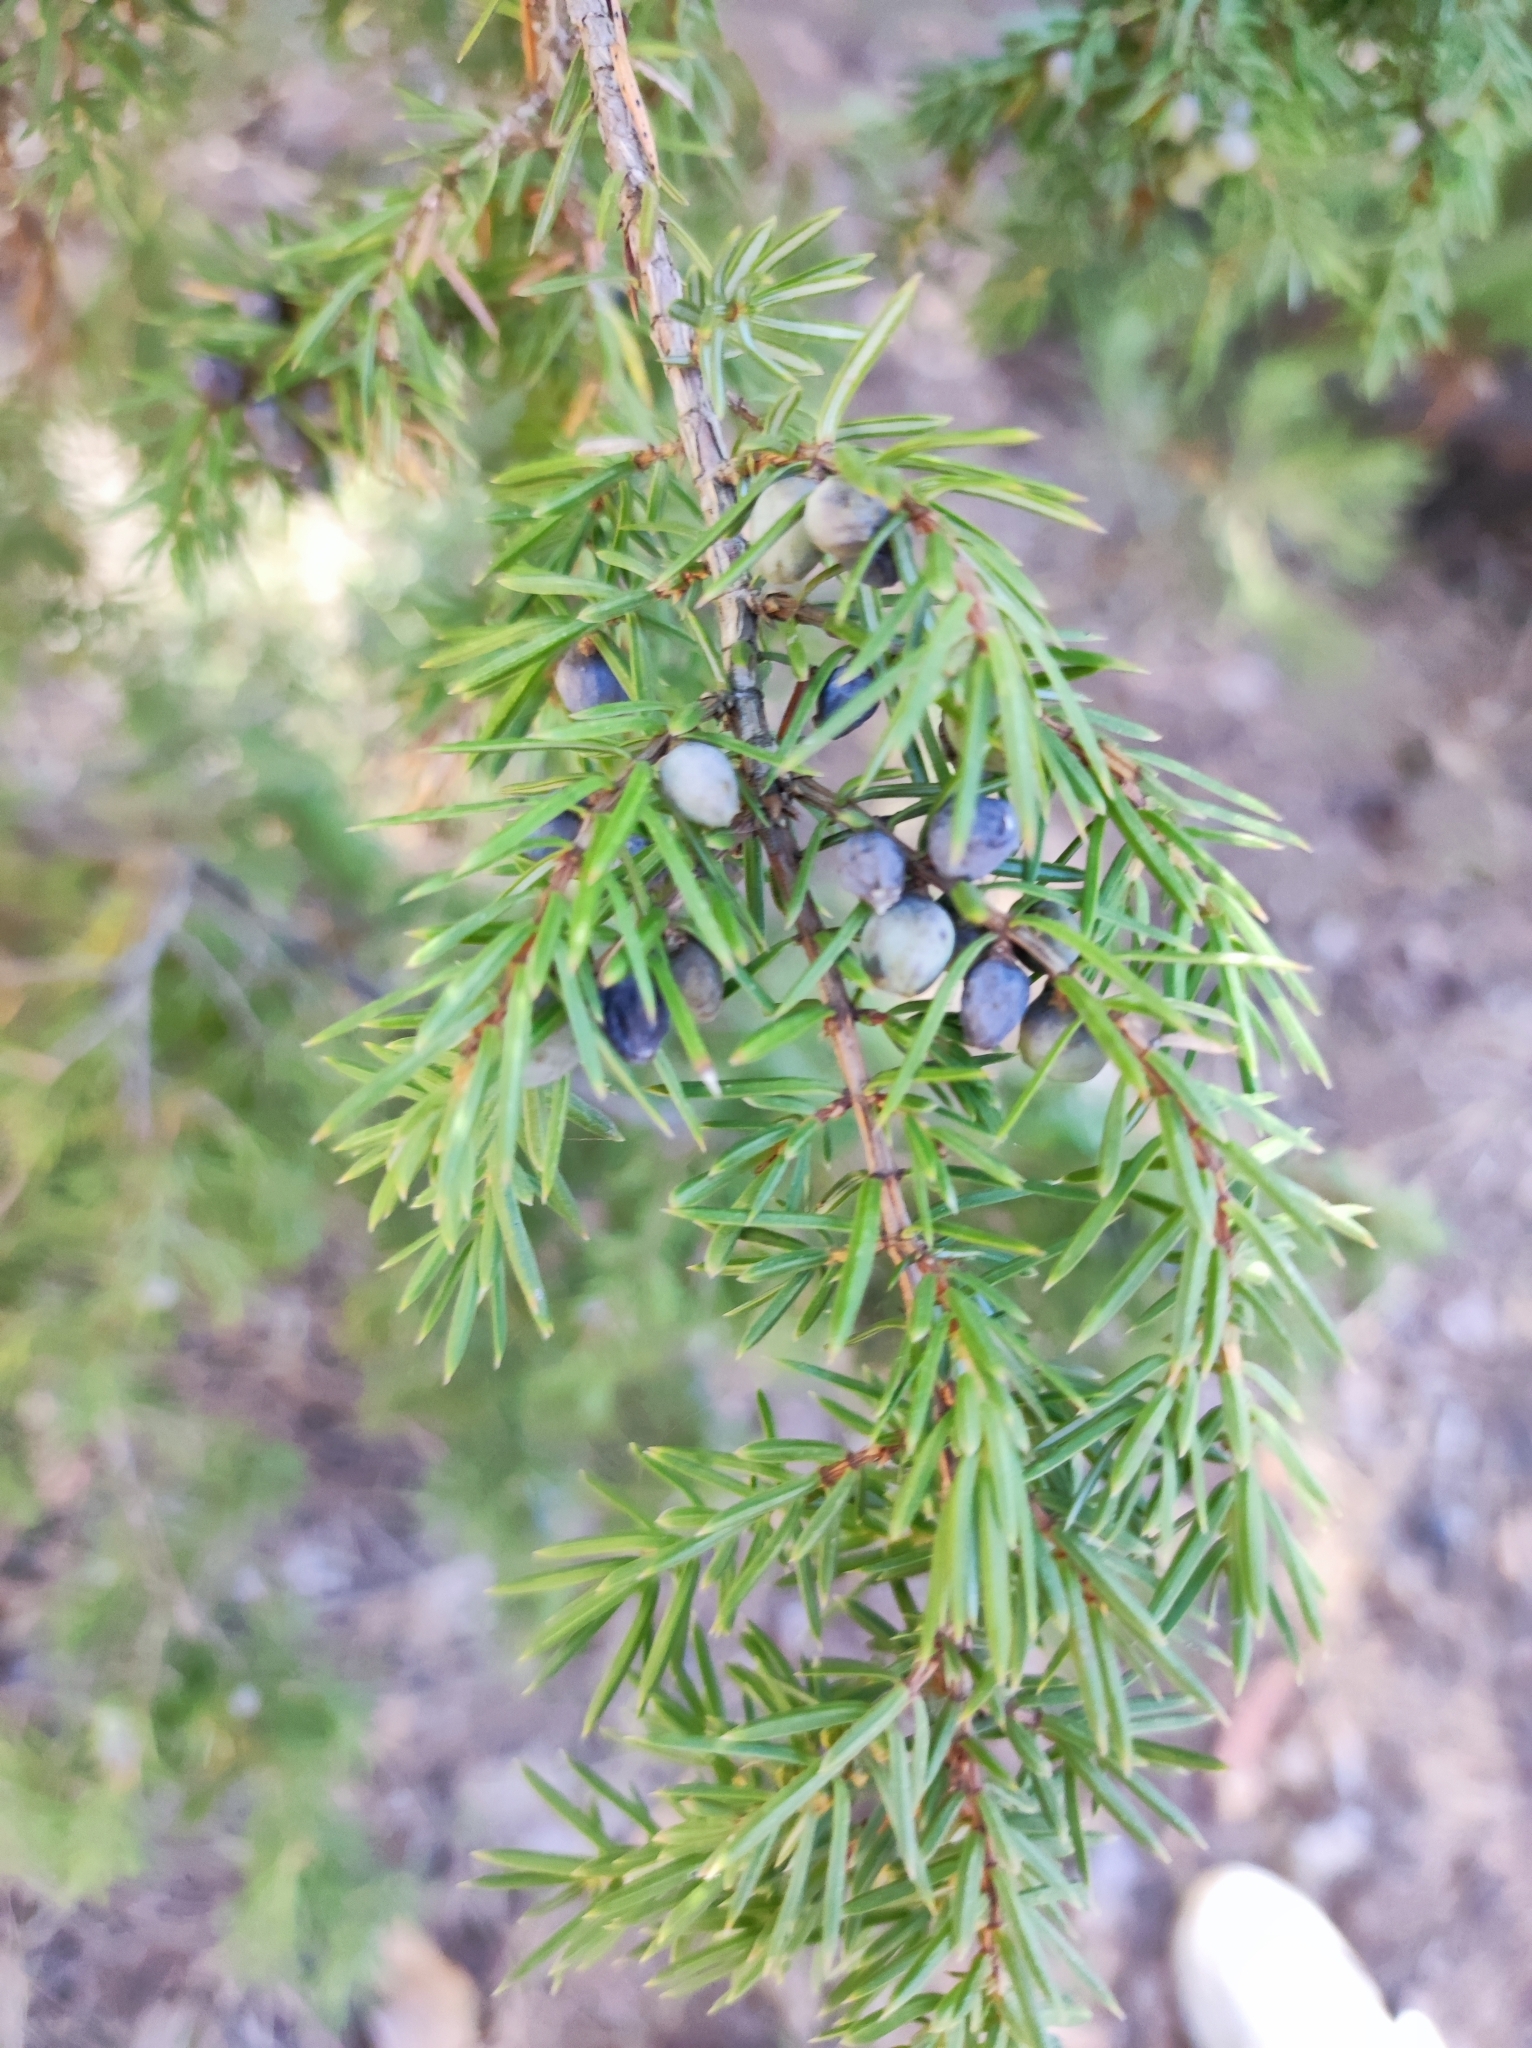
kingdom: Plantae
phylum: Tracheophyta
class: Pinopsida
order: Pinales
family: Cupressaceae
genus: Juniperus
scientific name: Juniperus communis
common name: Common juniper
